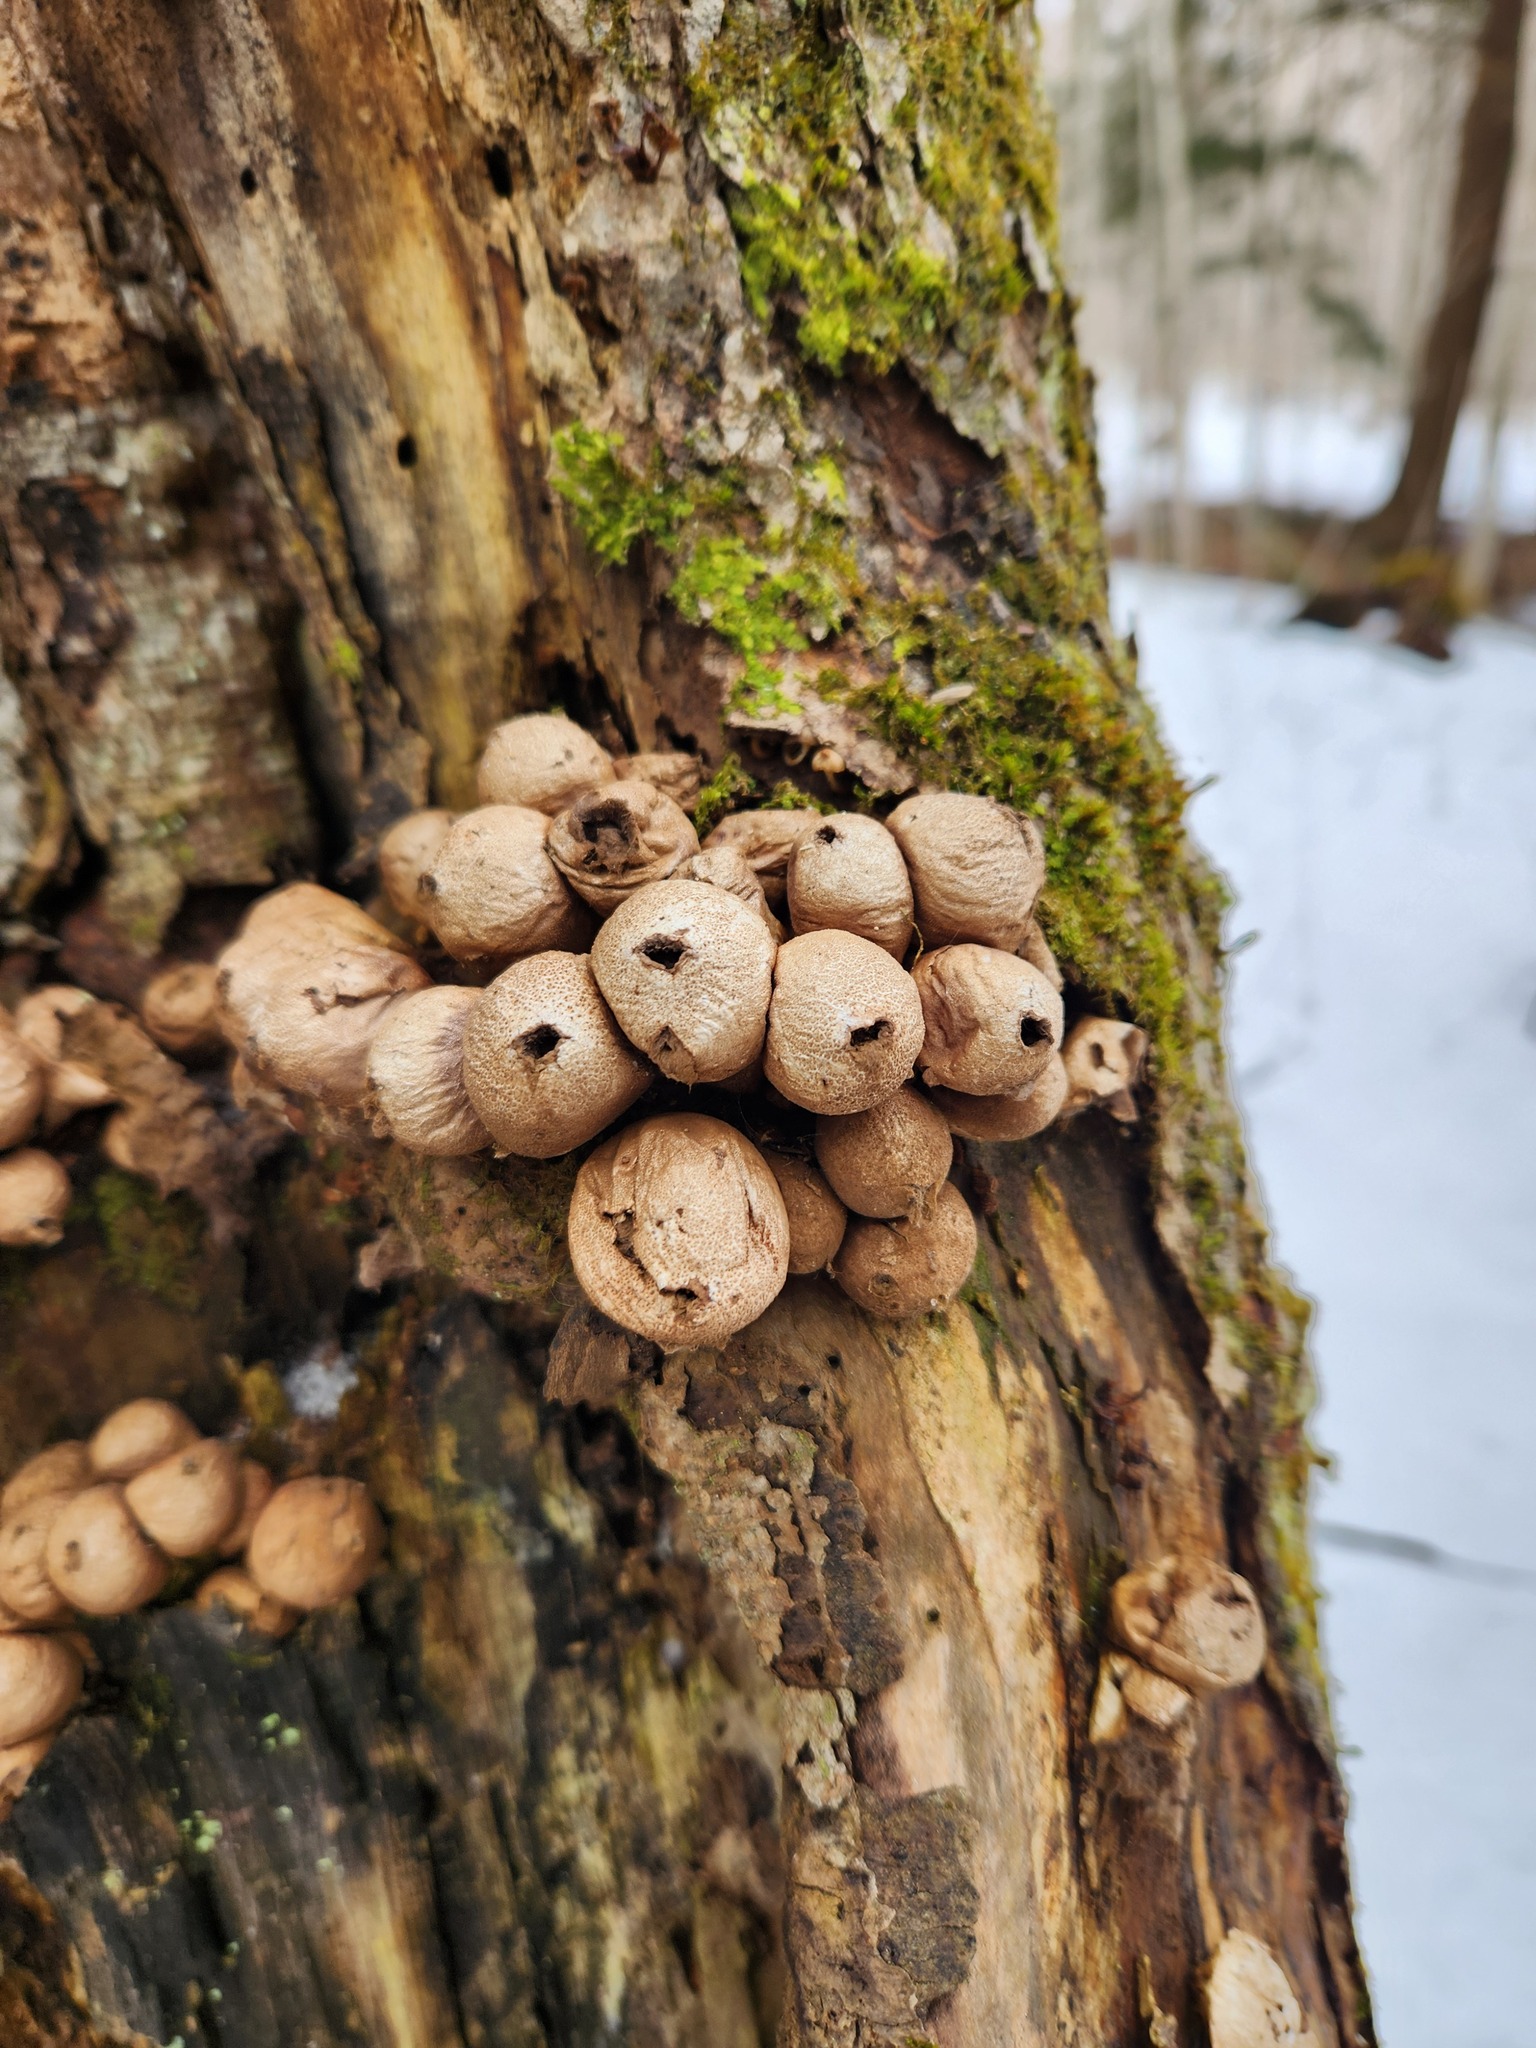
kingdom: Fungi
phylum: Basidiomycota
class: Agaricomycetes
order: Agaricales
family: Lycoperdaceae
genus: Apioperdon
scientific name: Apioperdon pyriforme
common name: Pear-shaped puffball
